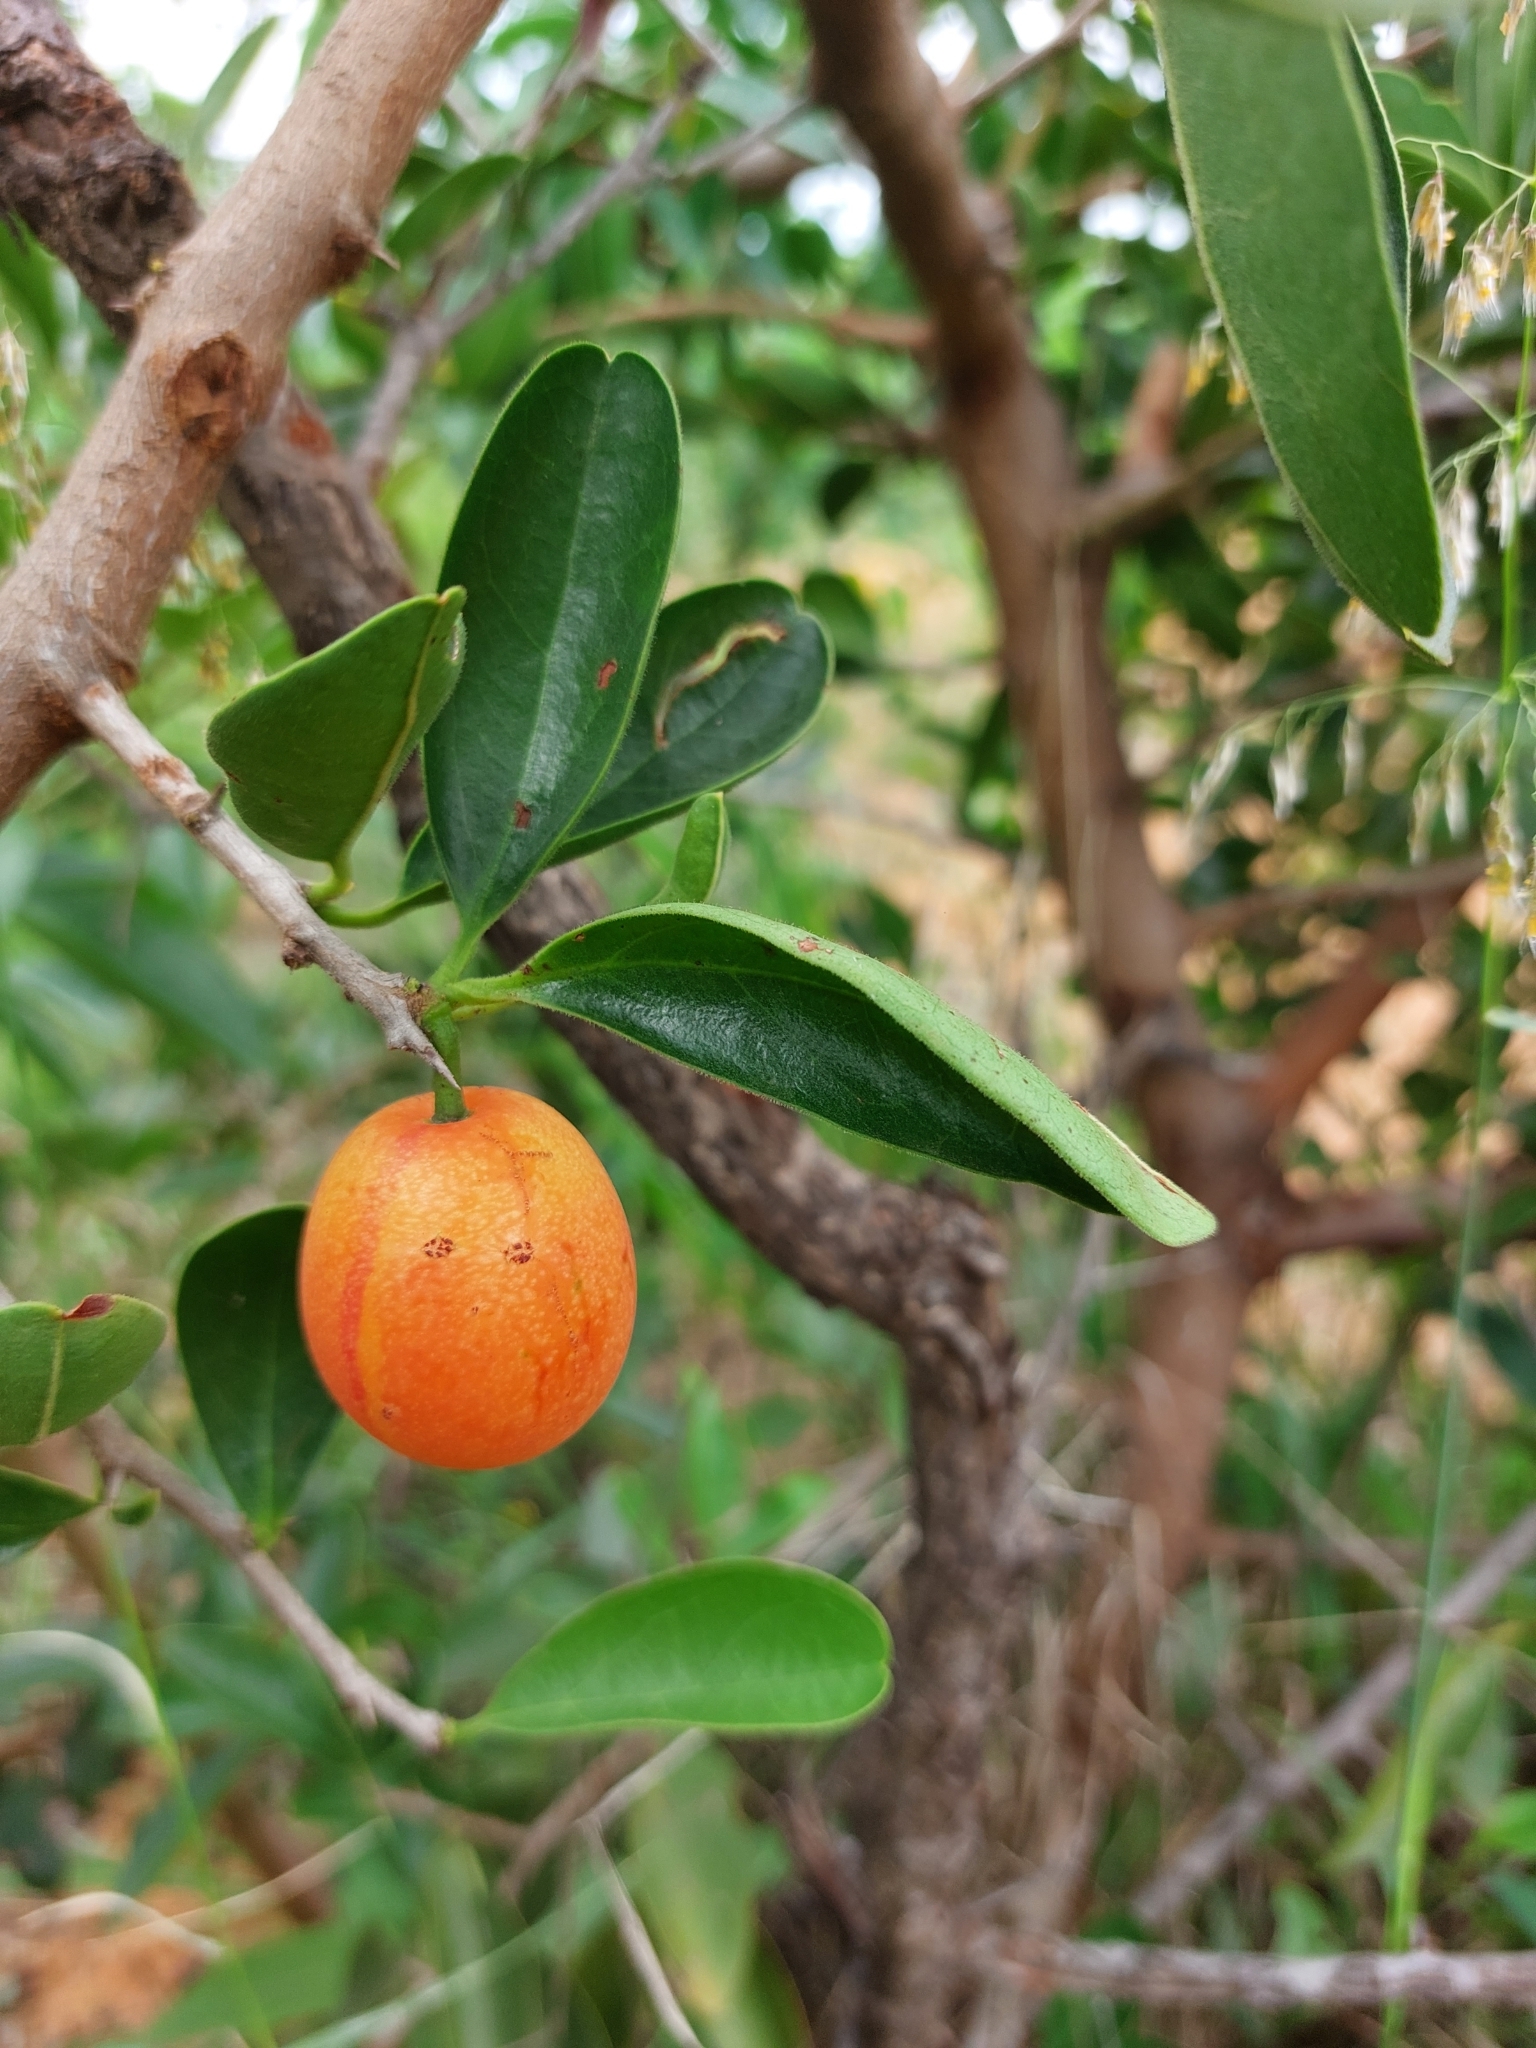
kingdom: Plantae
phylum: Tracheophyta
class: Magnoliopsida
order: Santalales
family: Ximeniaceae
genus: Ximenia
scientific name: Ximenia caffra
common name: Large sourplum
